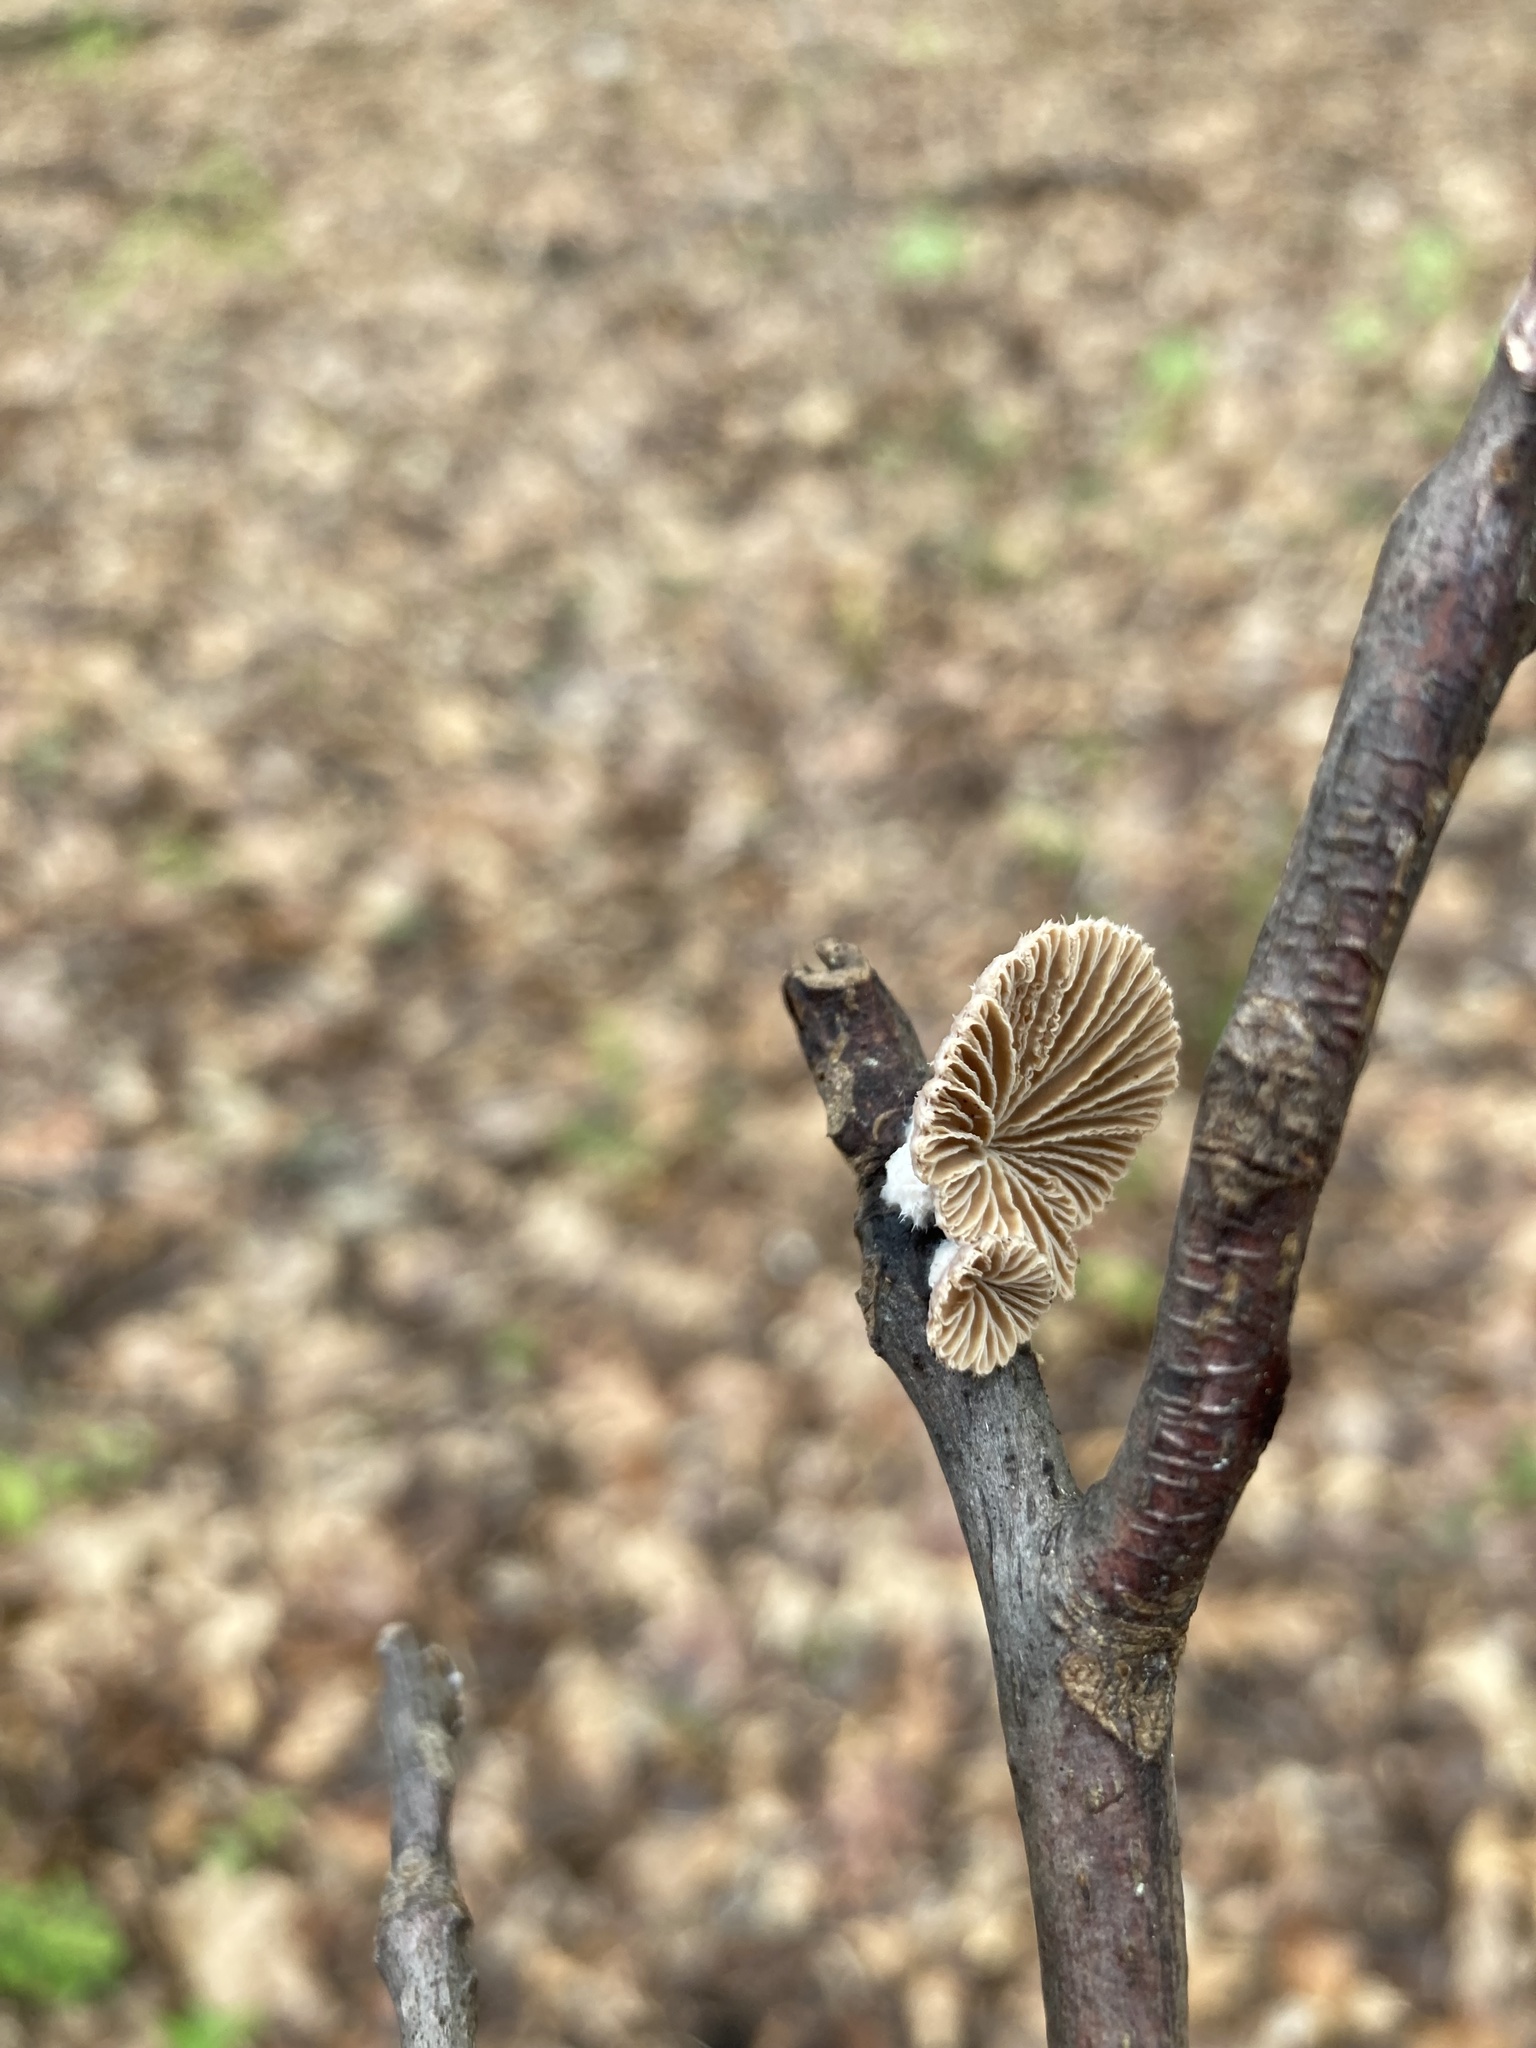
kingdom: Fungi
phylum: Basidiomycota
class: Agaricomycetes
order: Agaricales
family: Schizophyllaceae
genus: Schizophyllum
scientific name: Schizophyllum commune
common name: Common porecrust
